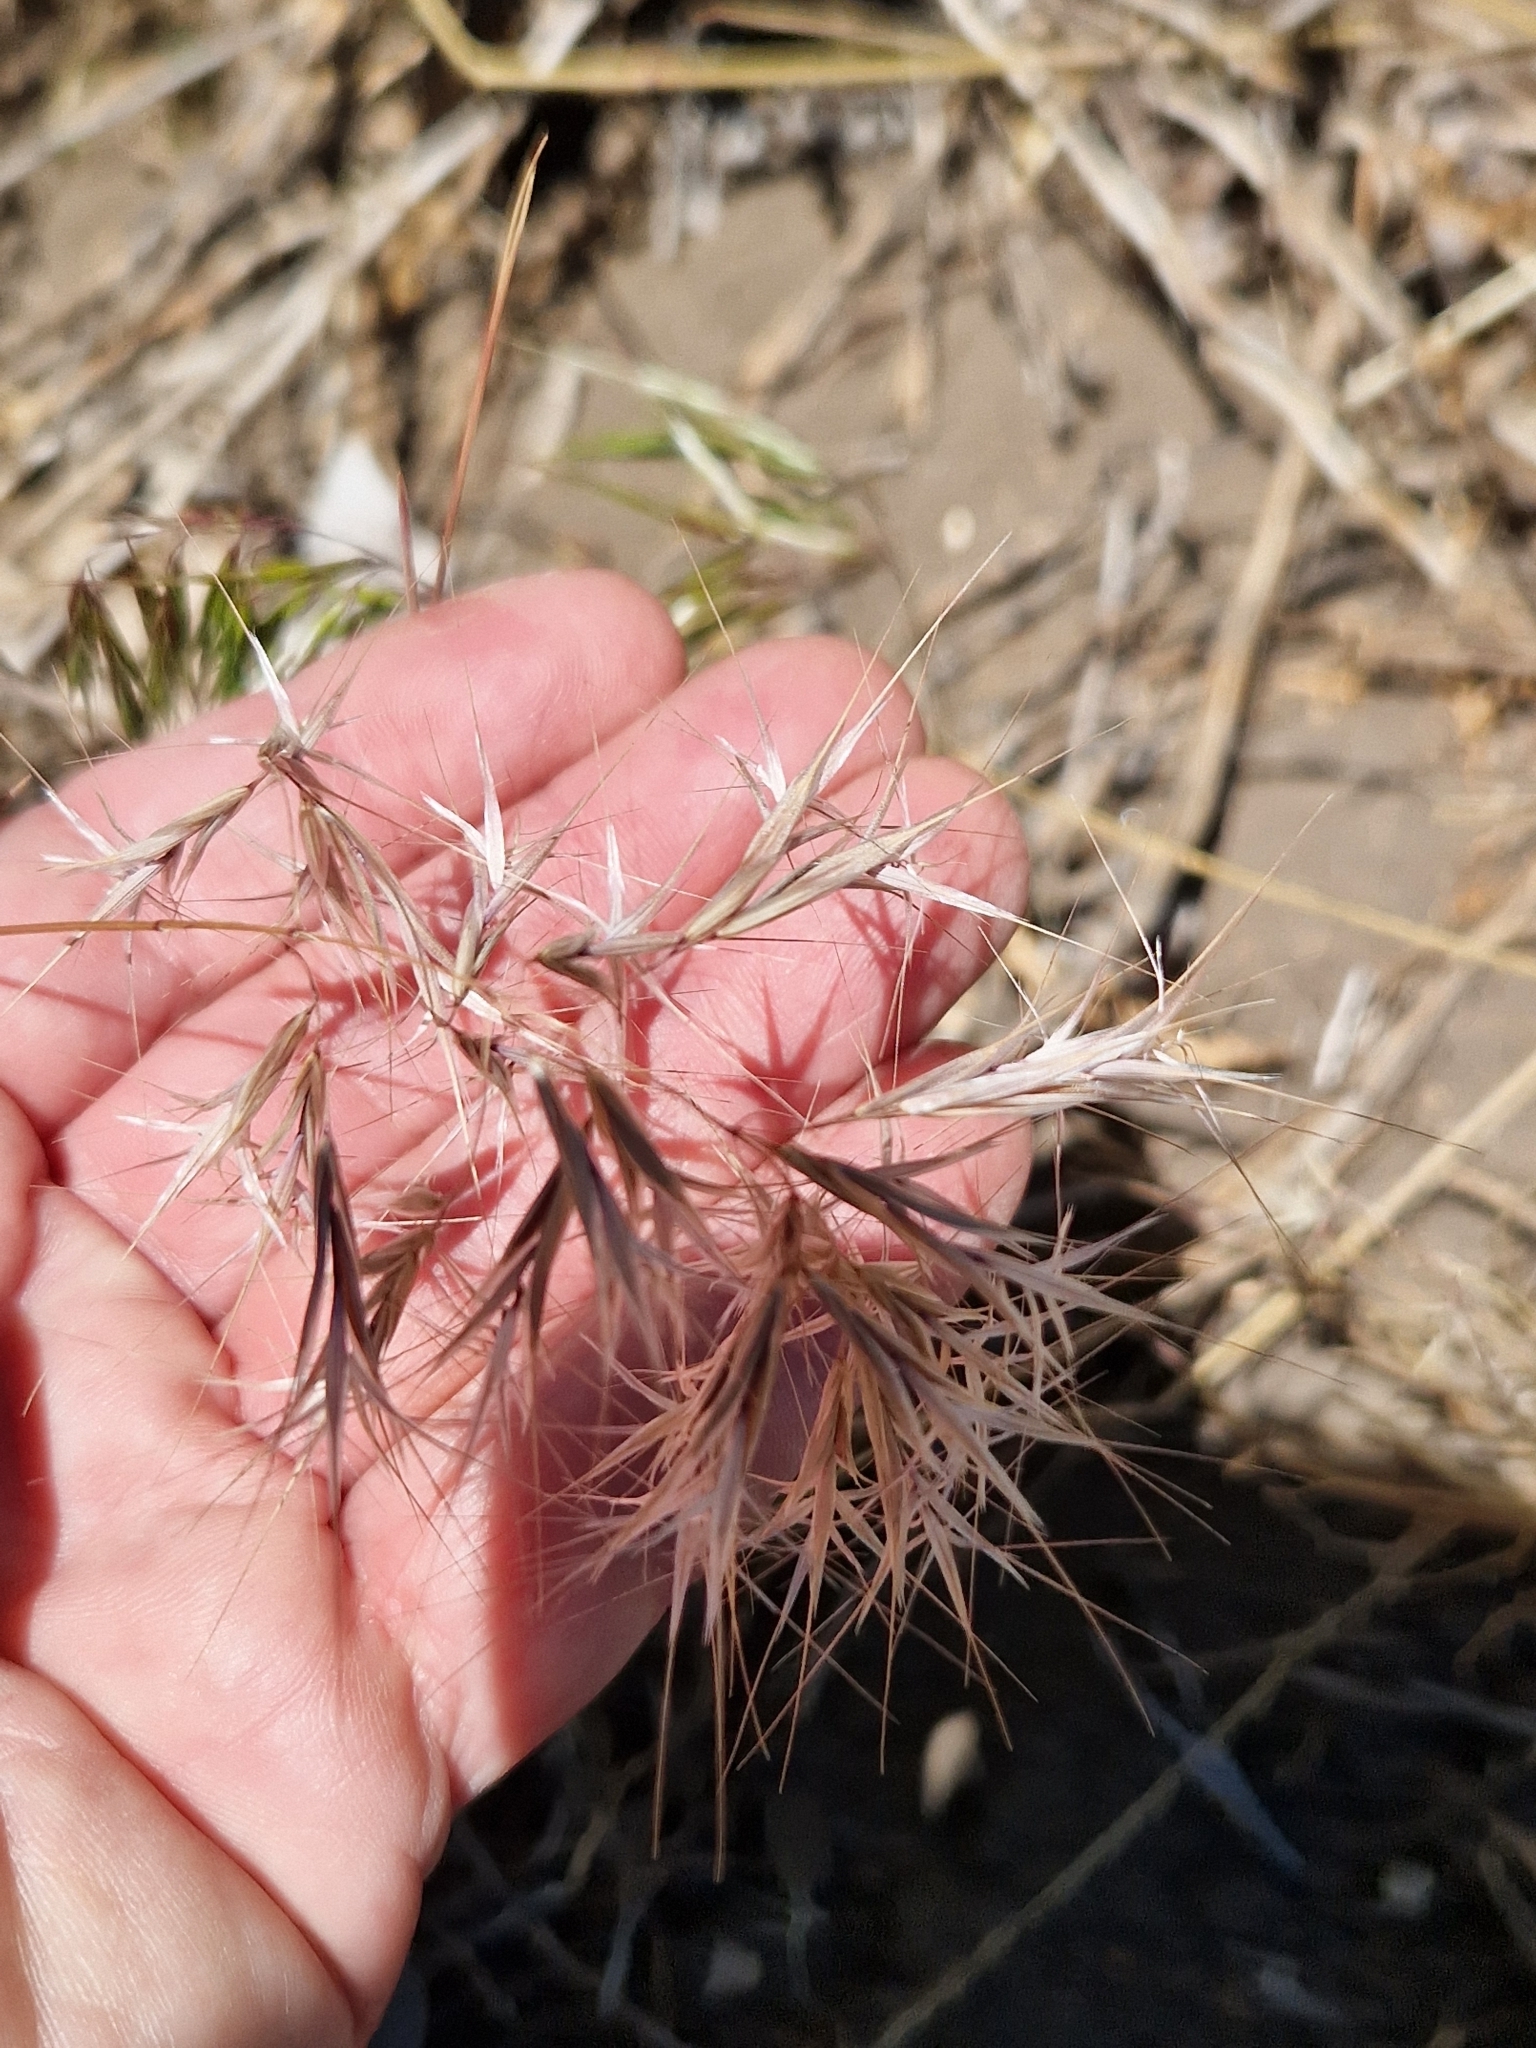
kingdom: Plantae
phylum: Tracheophyta
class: Liliopsida
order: Poales
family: Poaceae
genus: Bromus
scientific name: Bromus tectorum
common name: Cheatgrass
